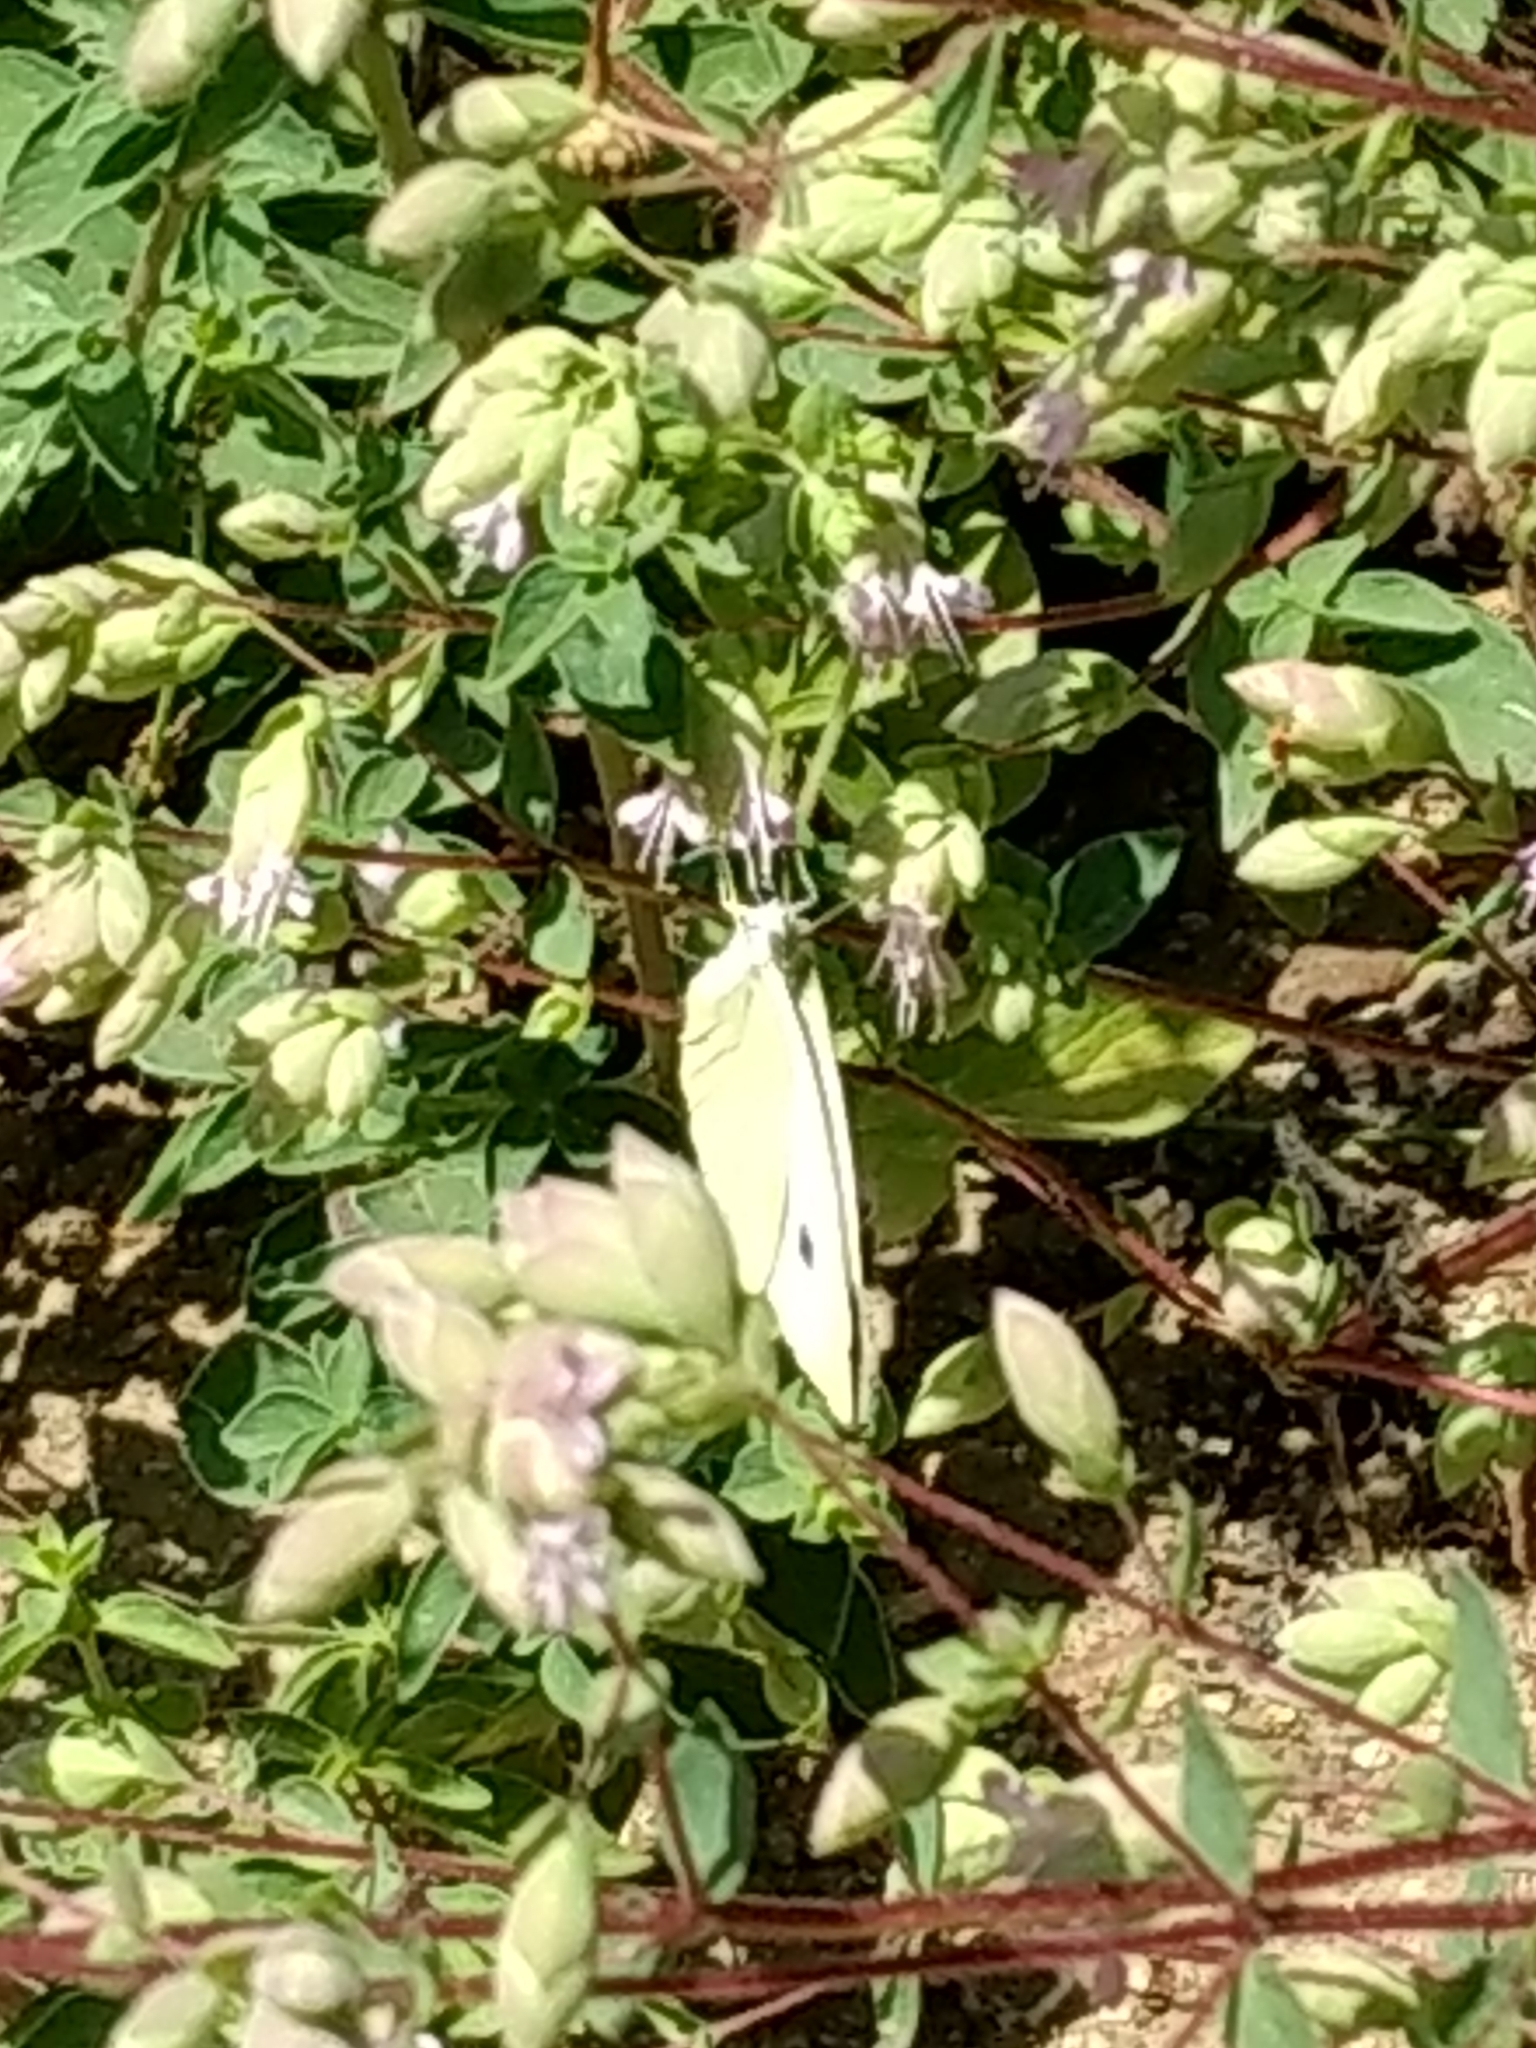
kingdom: Animalia
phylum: Arthropoda
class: Insecta
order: Lepidoptera
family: Pieridae
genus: Pieris
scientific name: Pieris rapae
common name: Small white
